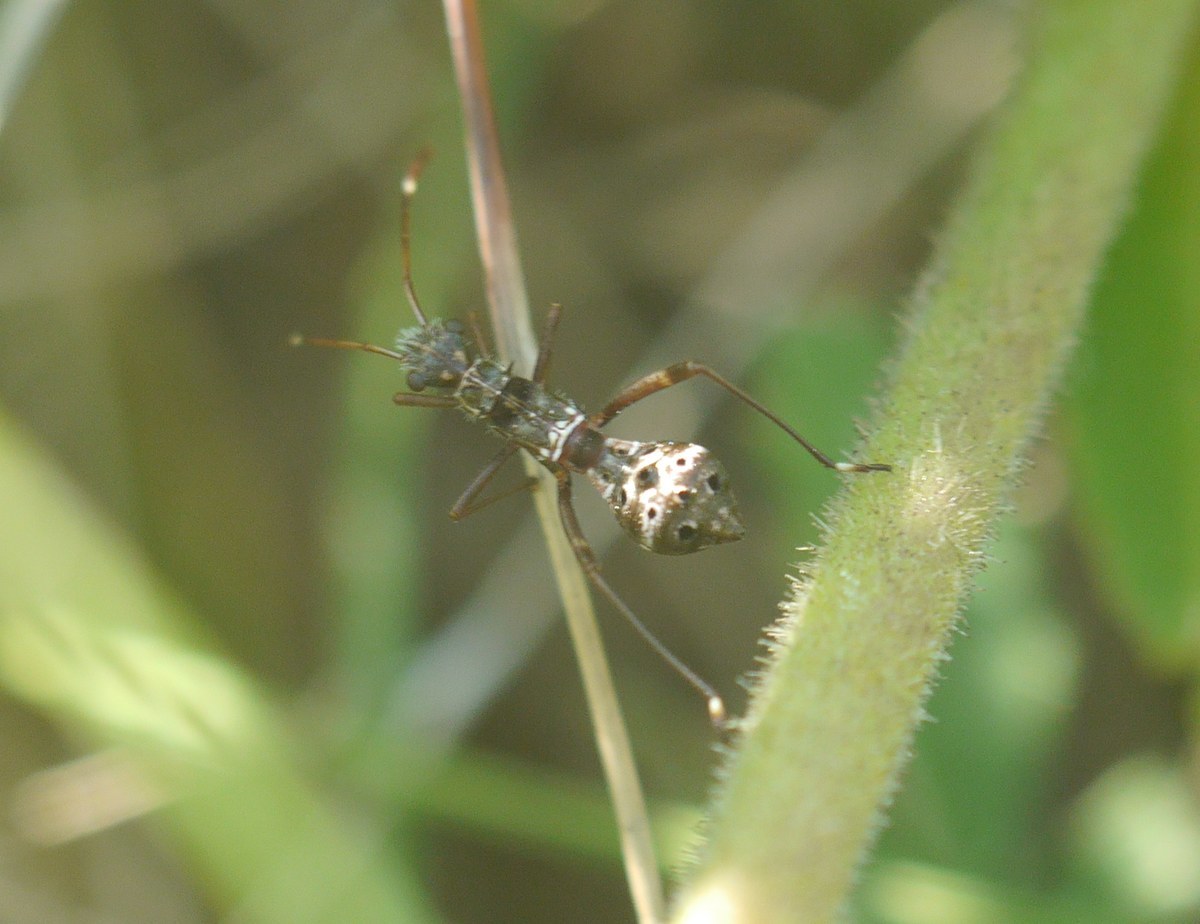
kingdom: Animalia
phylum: Arthropoda
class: Insecta
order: Hemiptera
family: Alydidae
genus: Camptopus
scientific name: Camptopus lateralis
